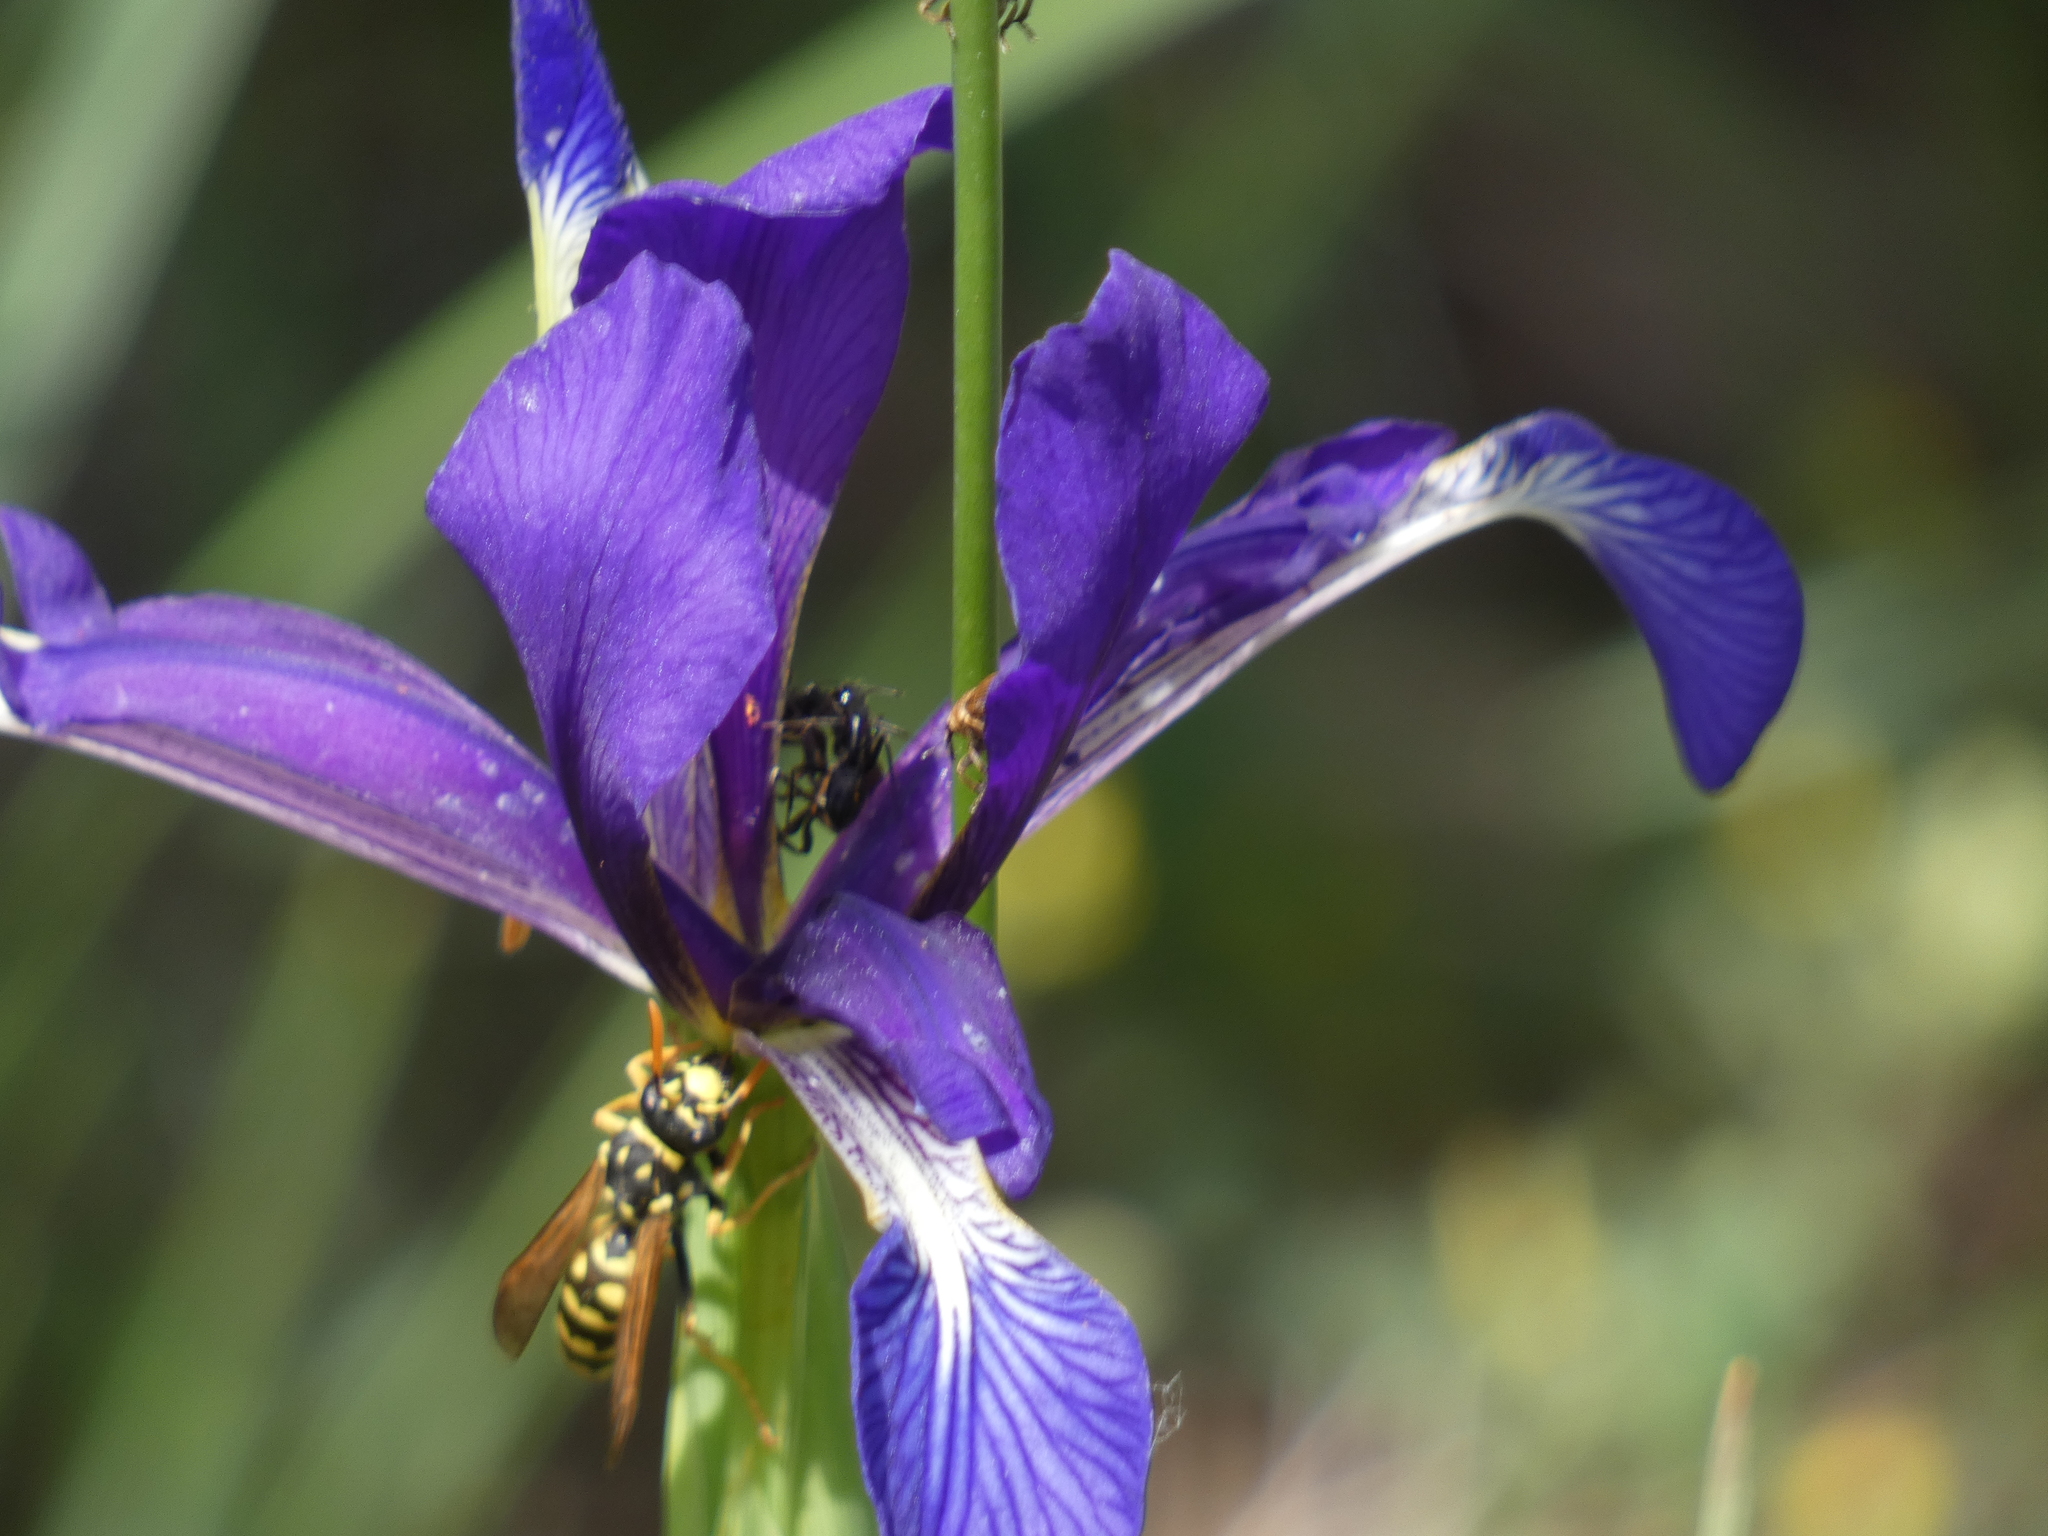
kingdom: Animalia
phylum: Arthropoda
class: Insecta
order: Hymenoptera
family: Eumenidae
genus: Polistes
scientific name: Polistes dominula
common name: Paper wasp
